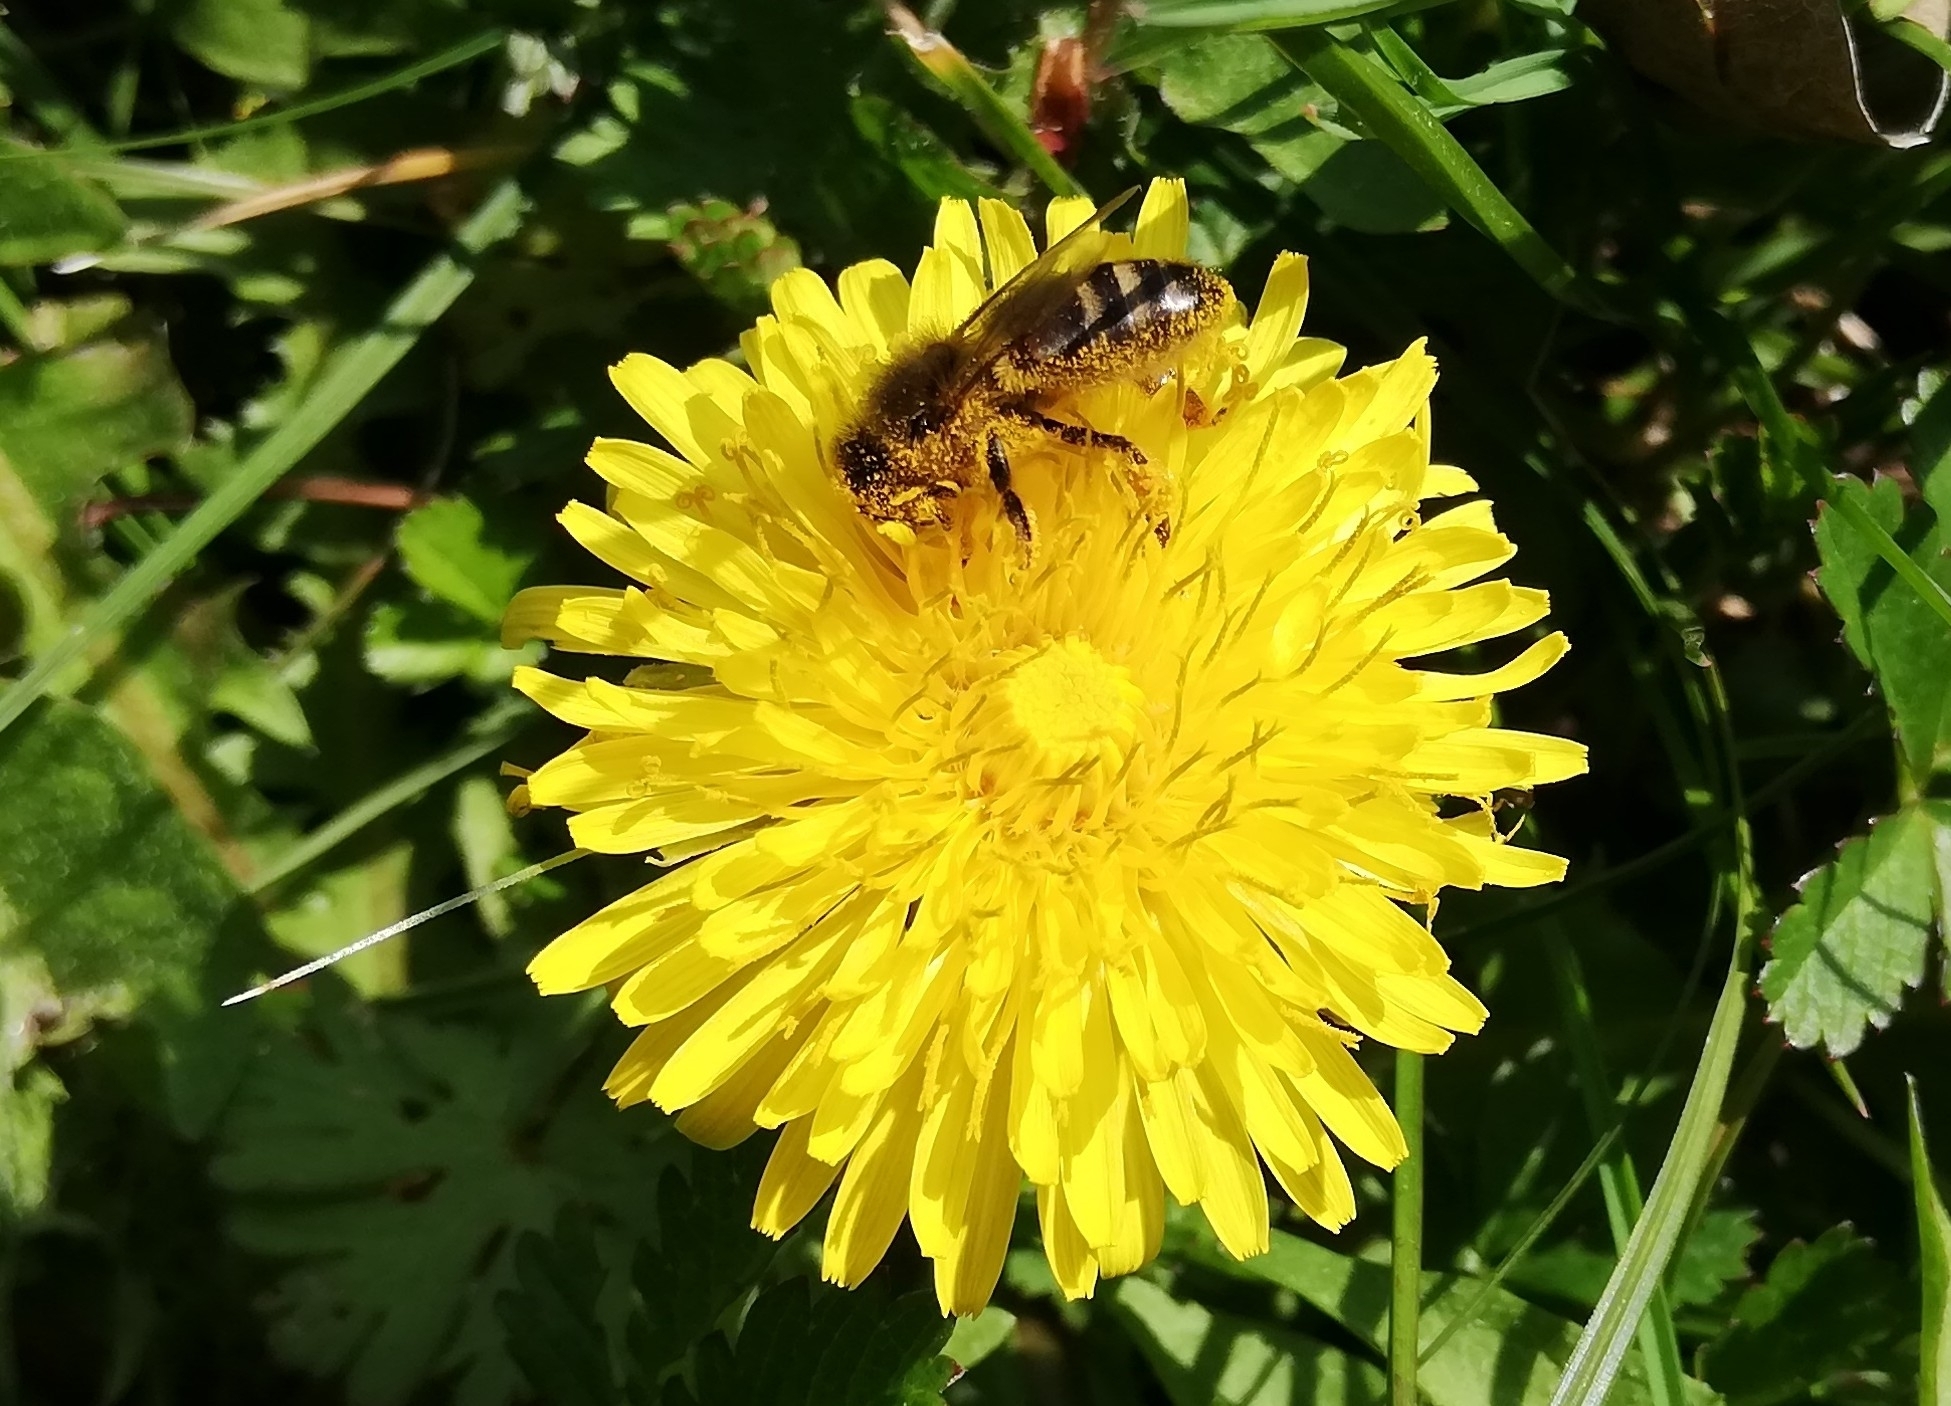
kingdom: Animalia
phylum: Arthropoda
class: Insecta
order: Hymenoptera
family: Apidae
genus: Apis
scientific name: Apis mellifera
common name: Honey bee
